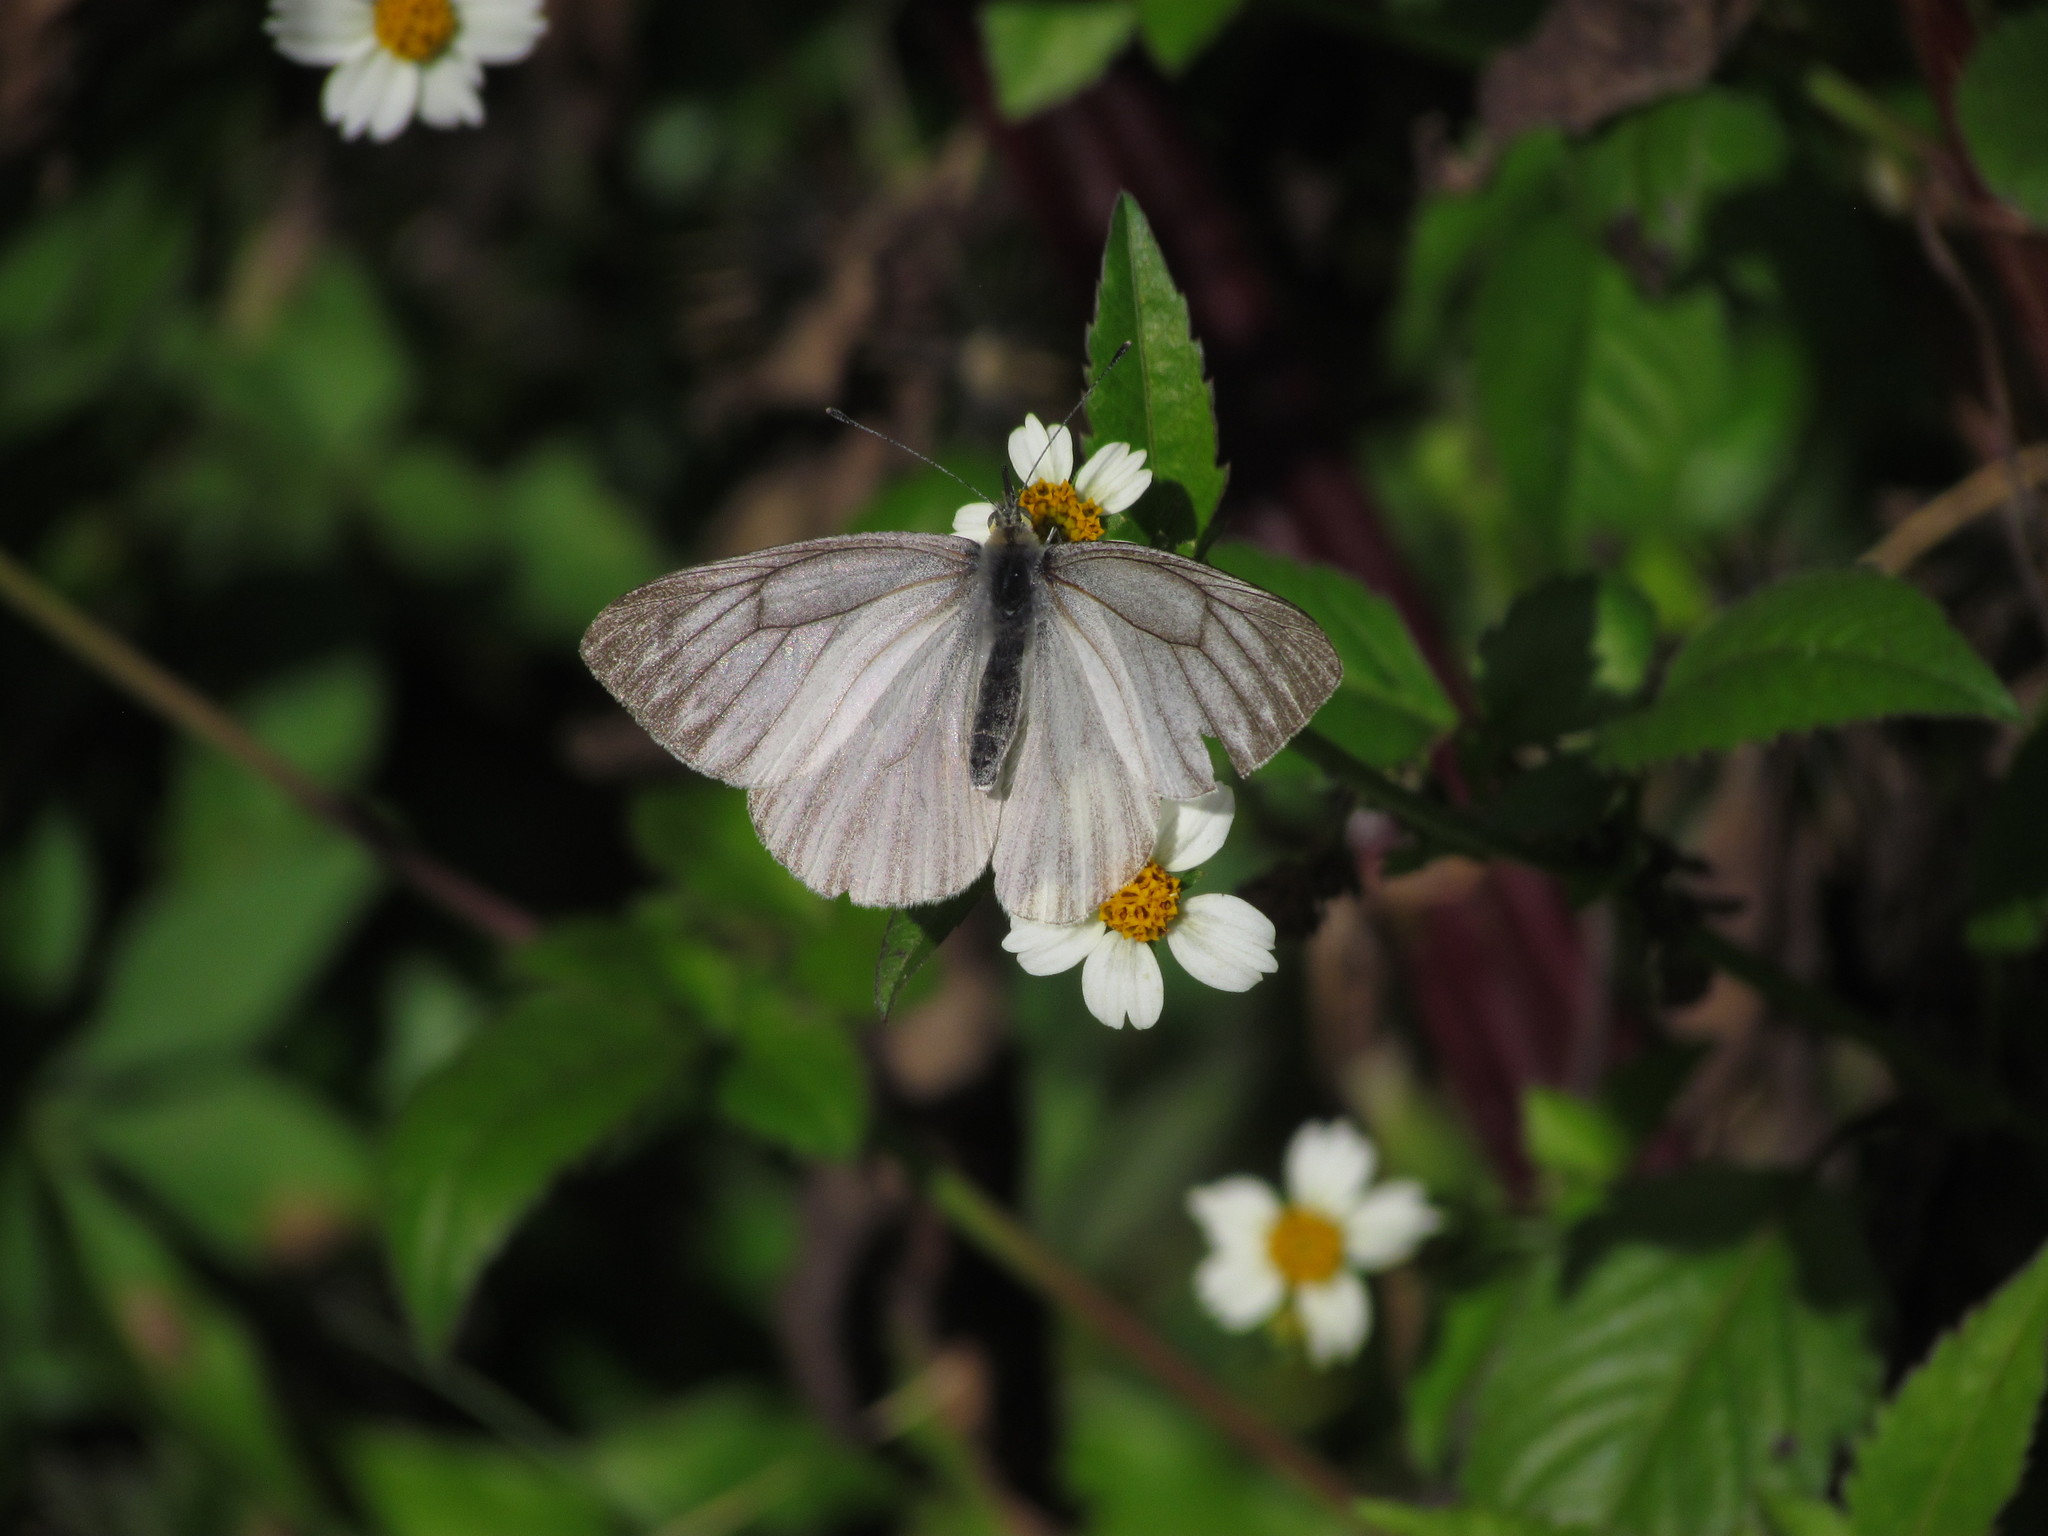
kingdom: Animalia
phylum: Arthropoda
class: Insecta
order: Lepidoptera
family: Pieridae
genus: Theochila
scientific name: Theochila maenacte
